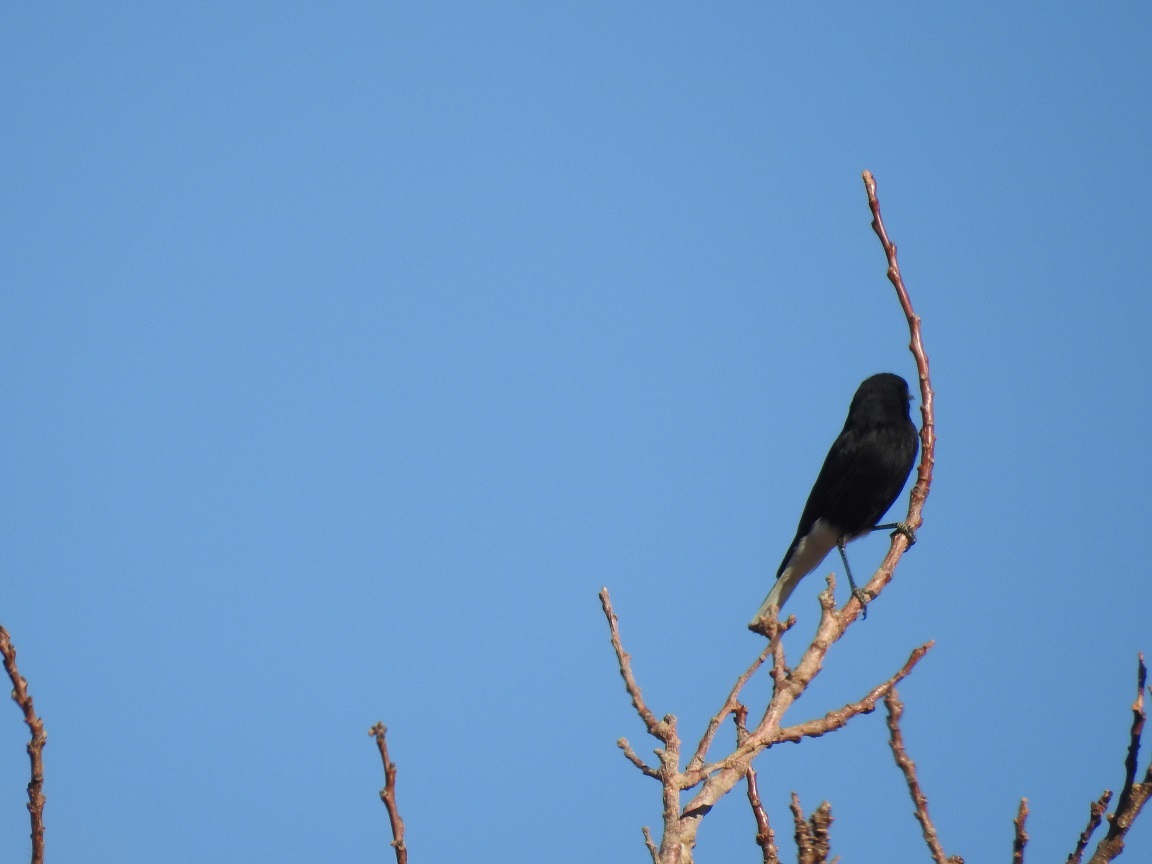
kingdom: Animalia
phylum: Chordata
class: Aves
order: Passeriformes
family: Muscicapidae
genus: Oenanthe
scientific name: Oenanthe leucopyga
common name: White-crowned wheatear
